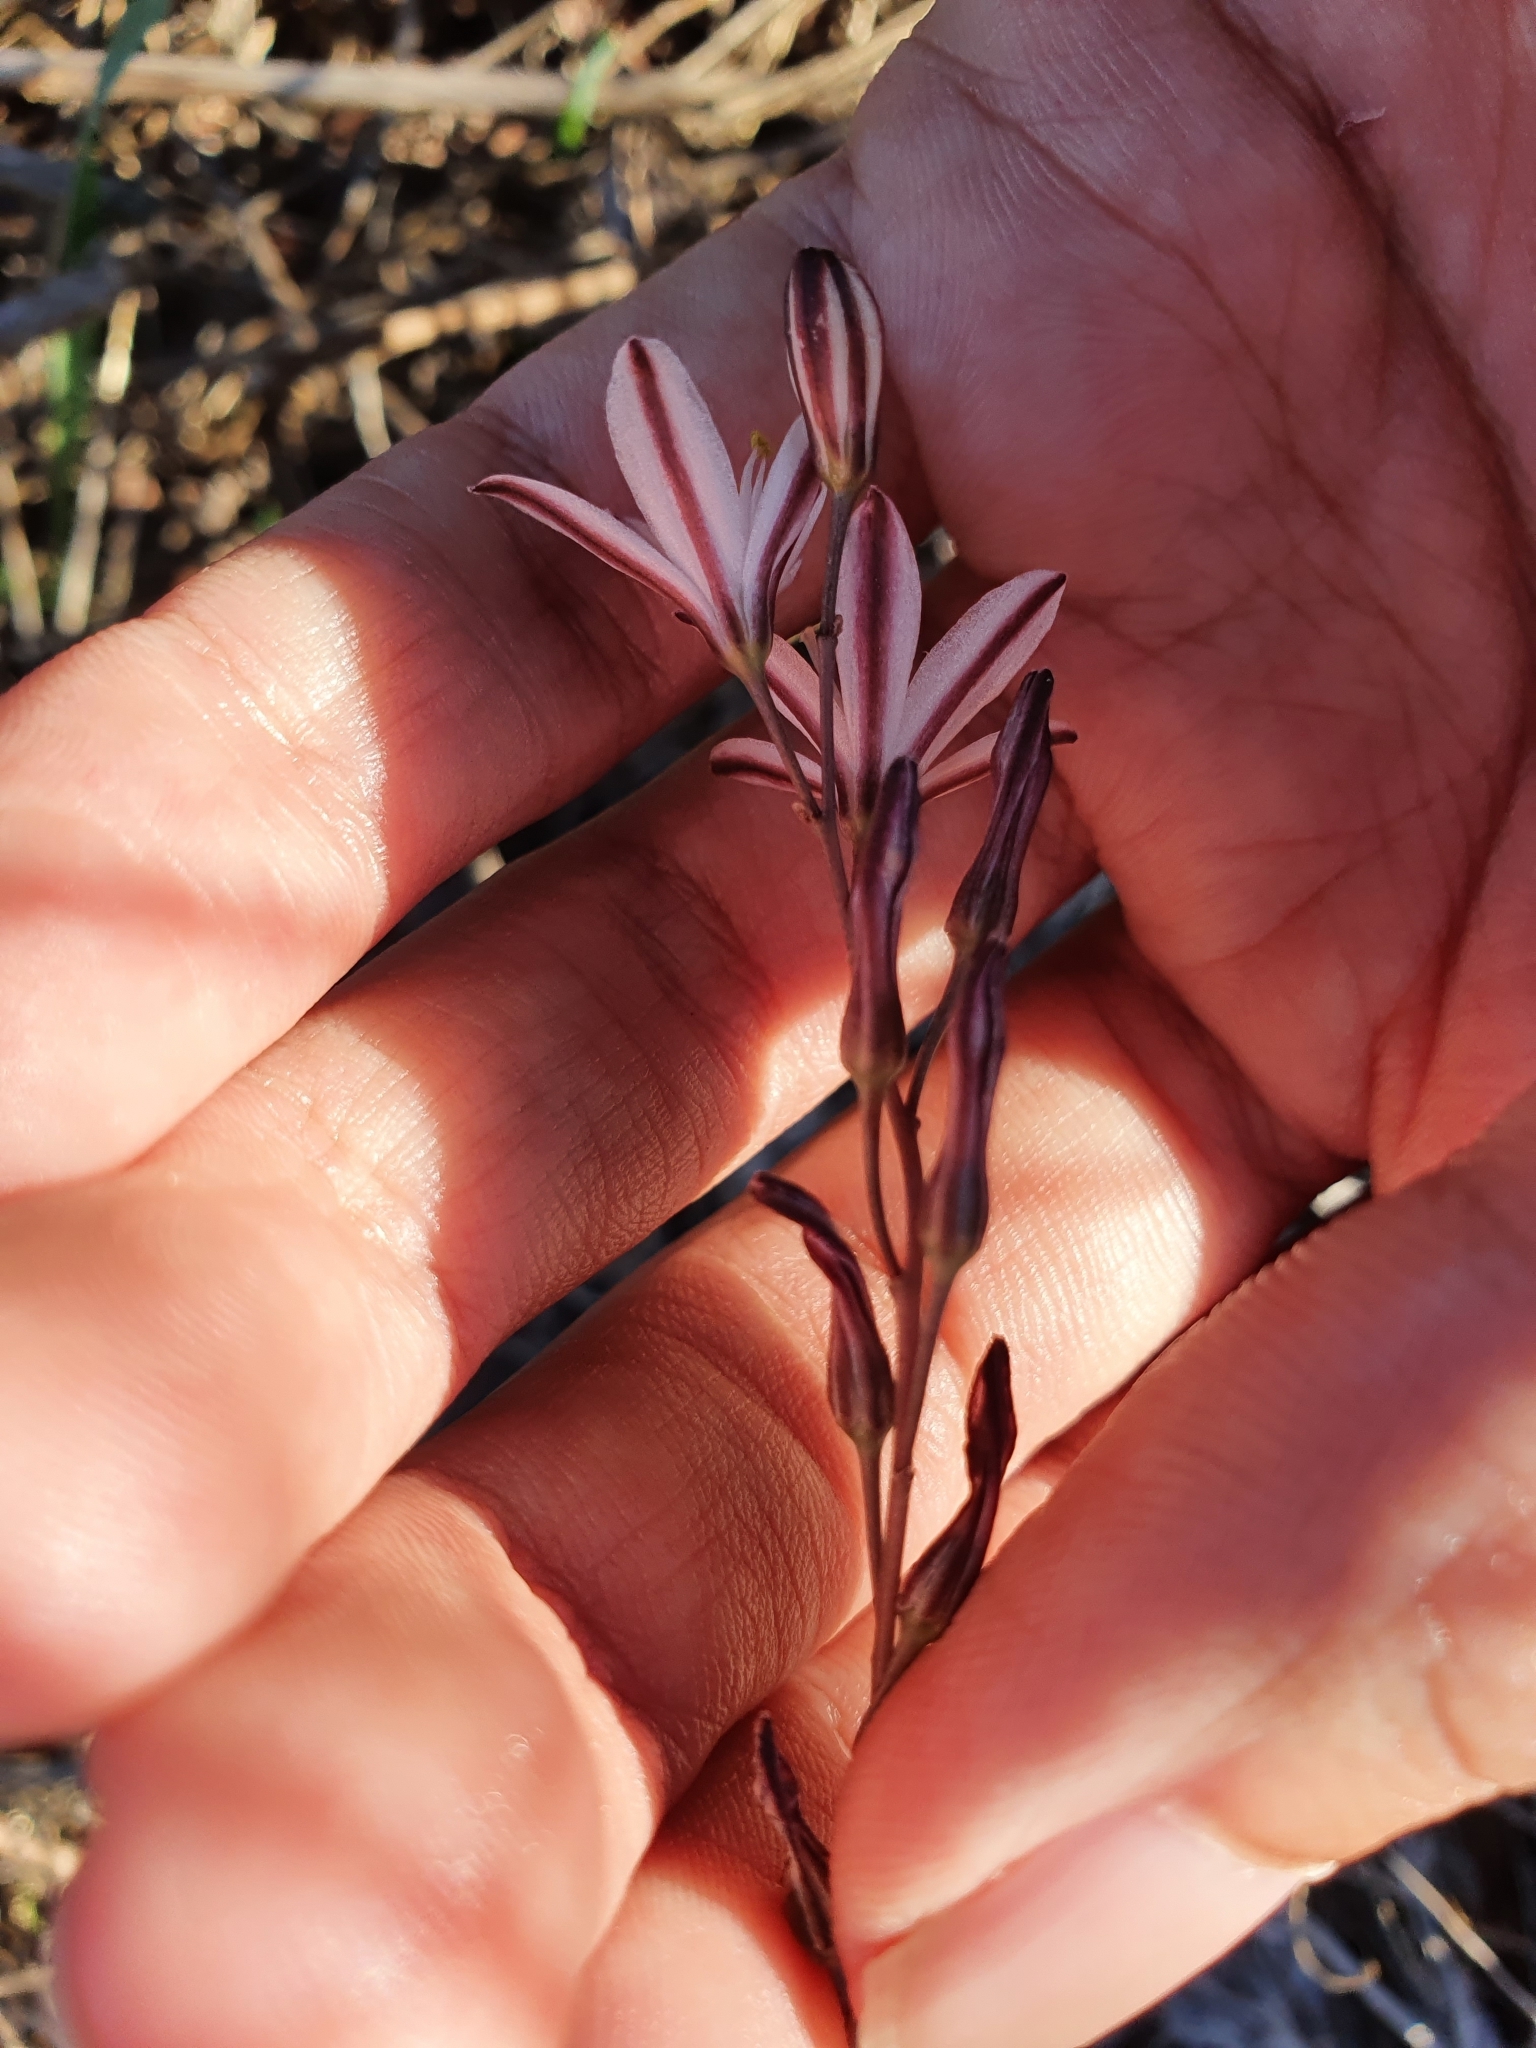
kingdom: Plantae
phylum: Tracheophyta
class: Liliopsida
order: Asparagales
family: Asparagaceae
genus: Drimia
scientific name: Drimia fugax
